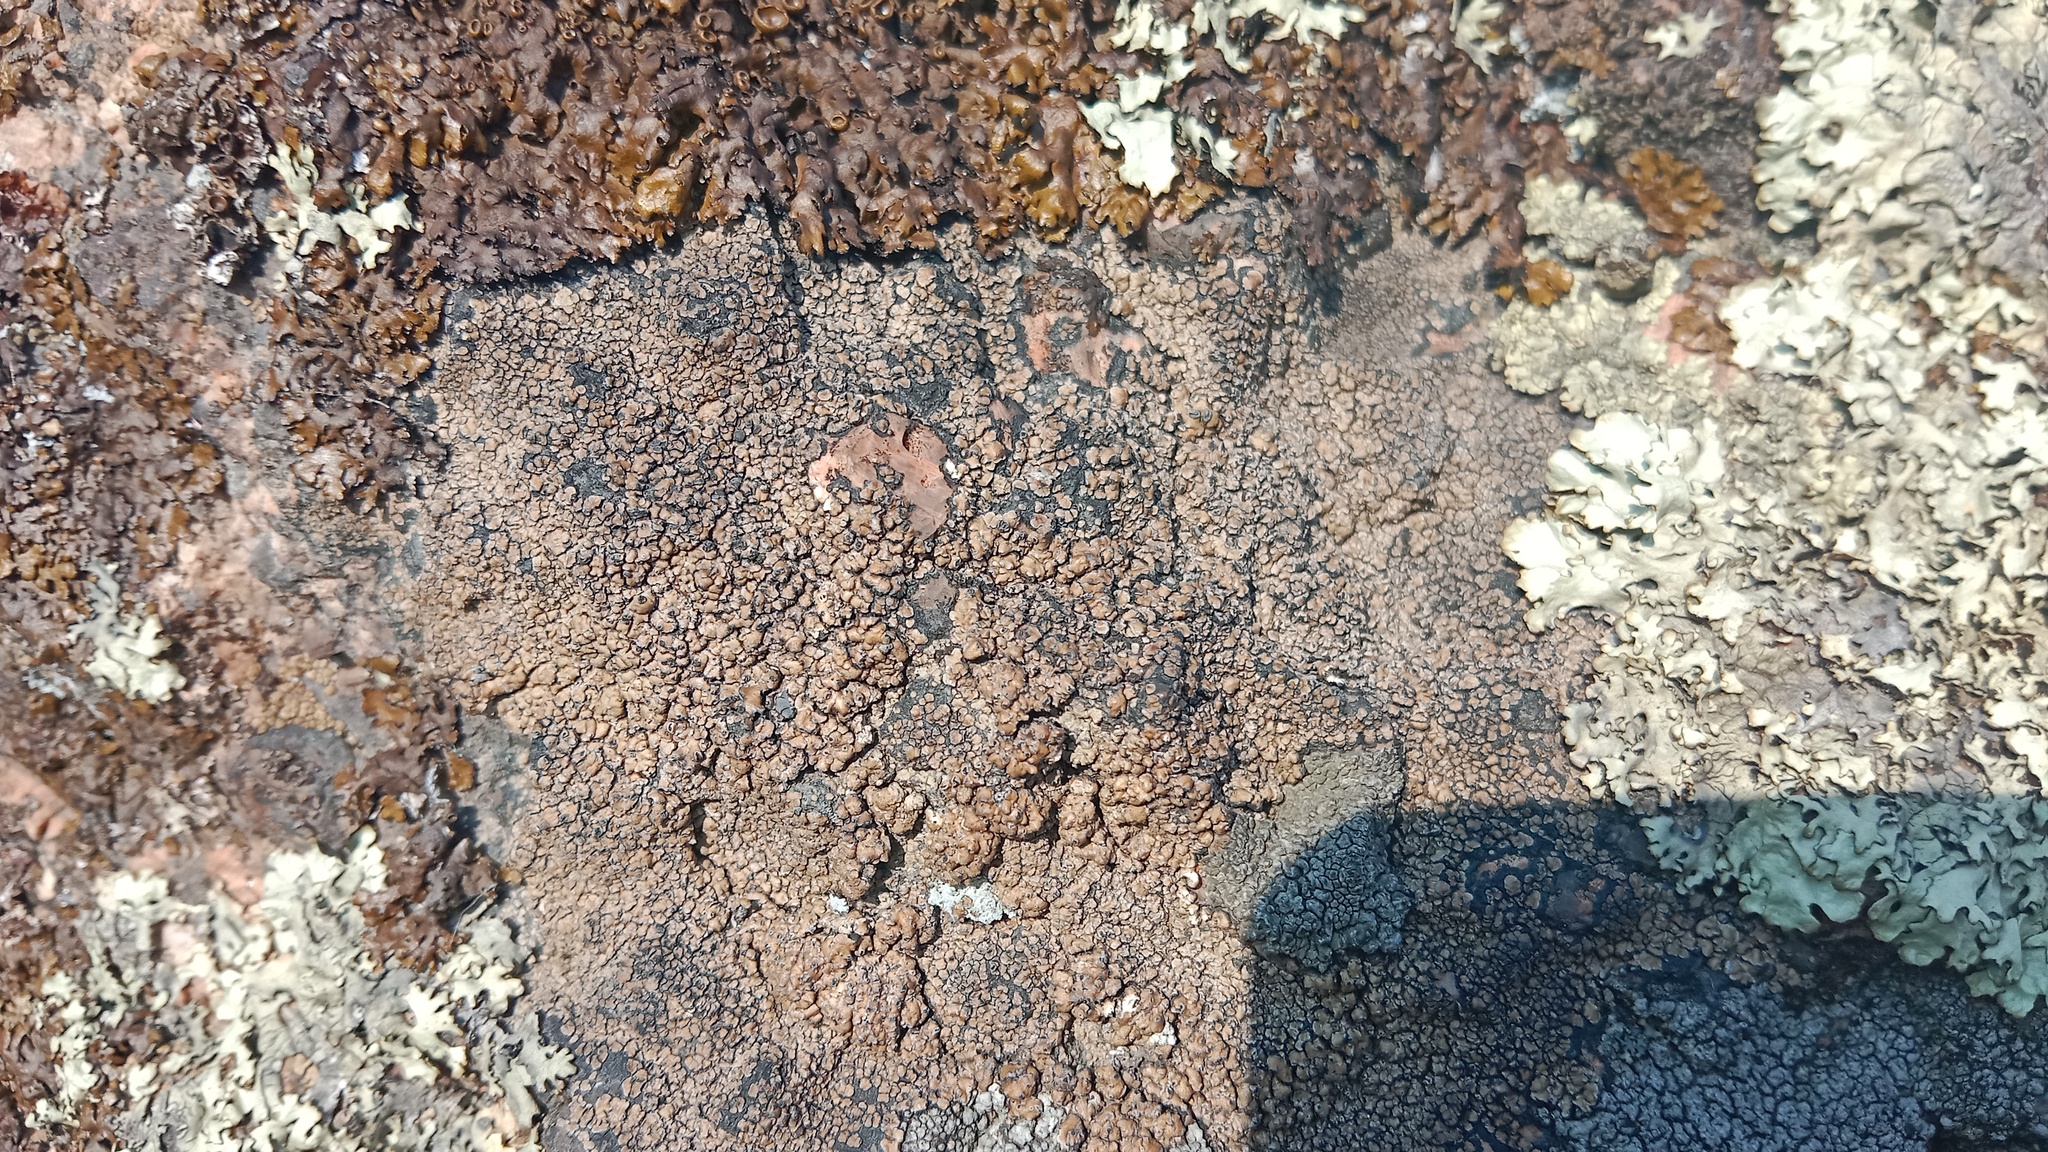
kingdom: Fungi
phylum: Ascomycota
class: Lecanoromycetes
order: Lecideales
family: Lecideaceae
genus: Lecidea
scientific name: Lecidea fuscoatra
